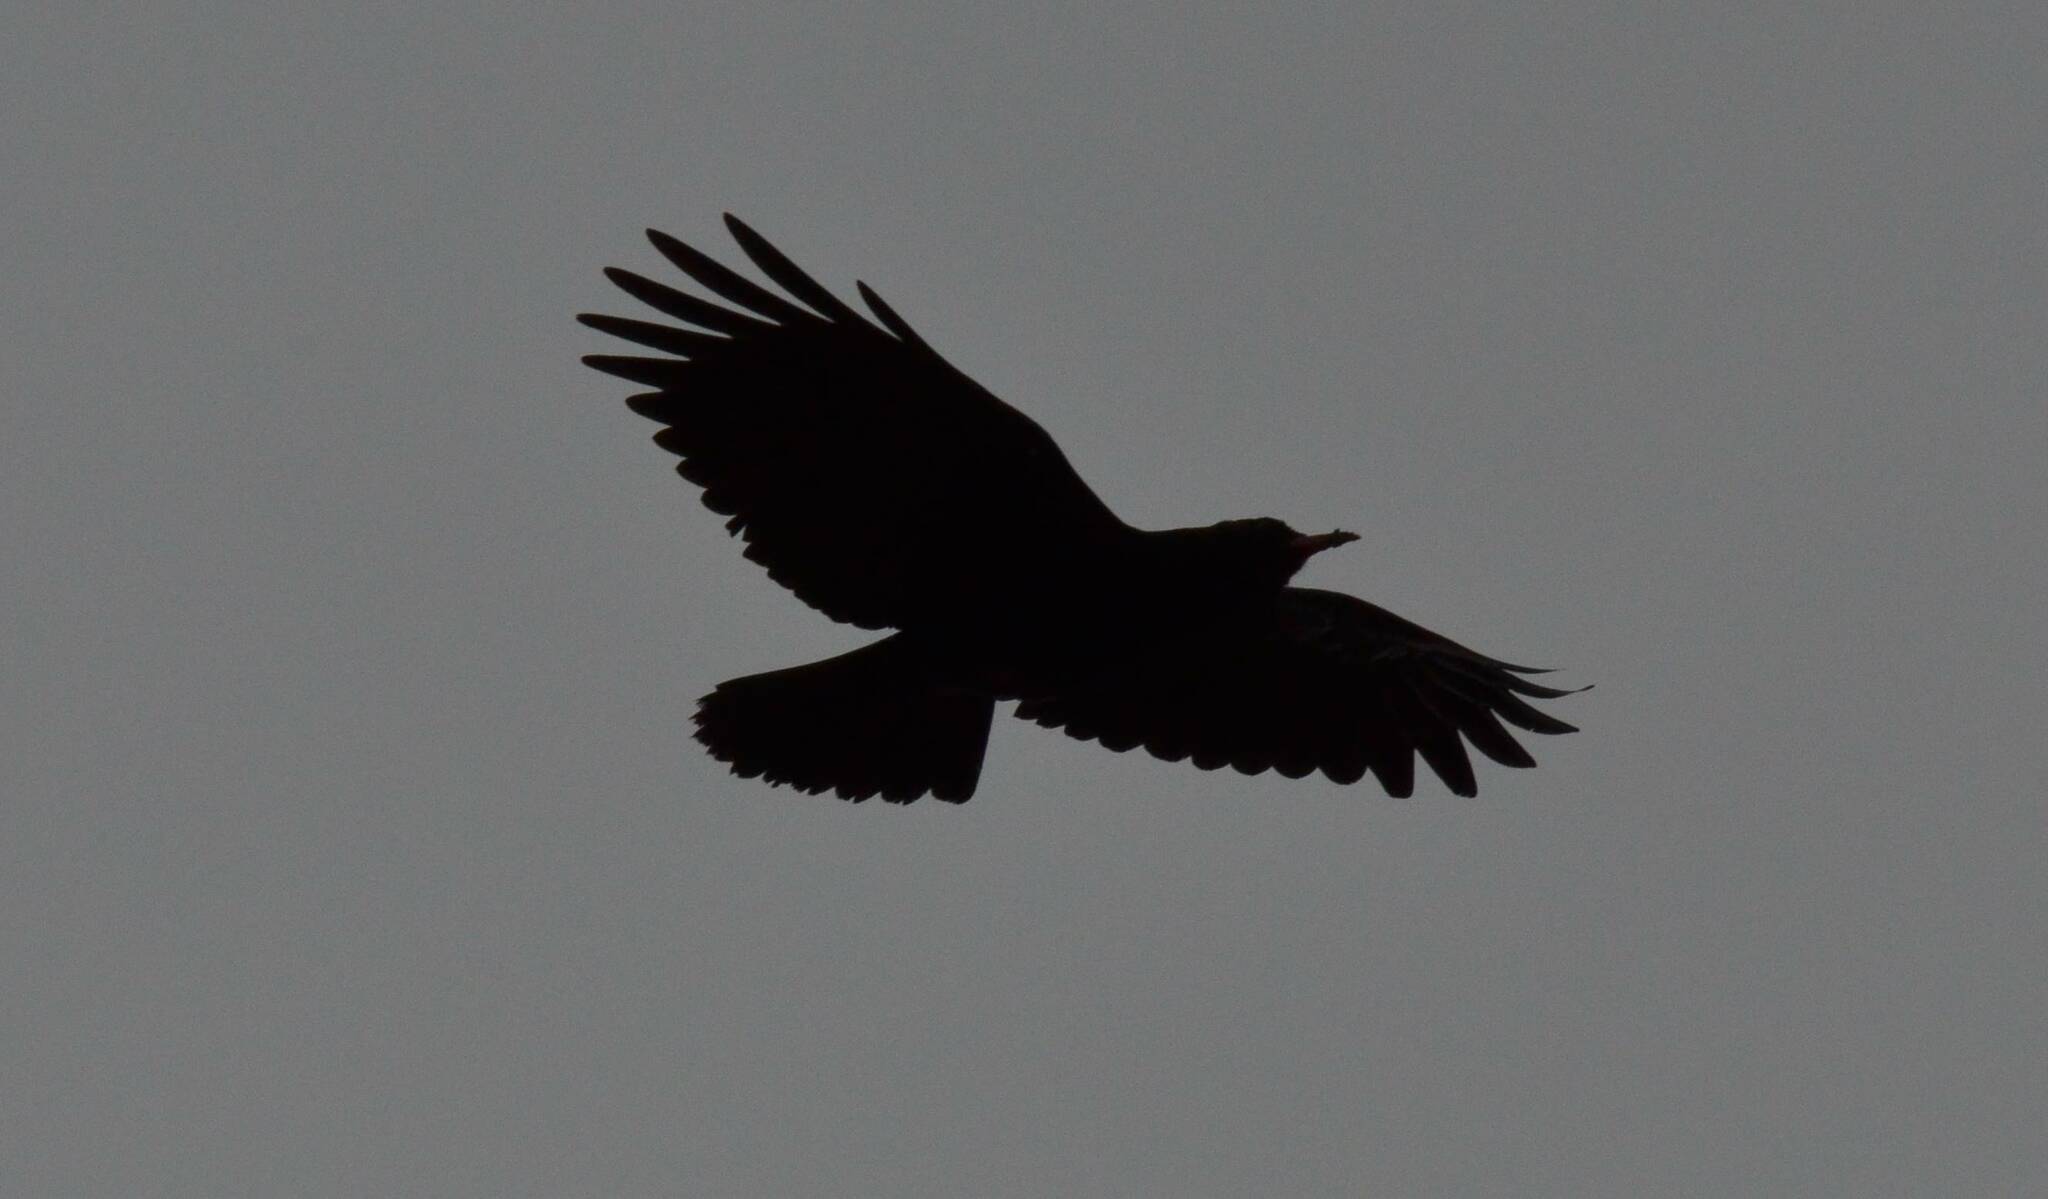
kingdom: Animalia
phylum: Chordata
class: Aves
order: Passeriformes
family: Corvidae
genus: Pyrrhocorax
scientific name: Pyrrhocorax pyrrhocorax
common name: Red-billed chough
